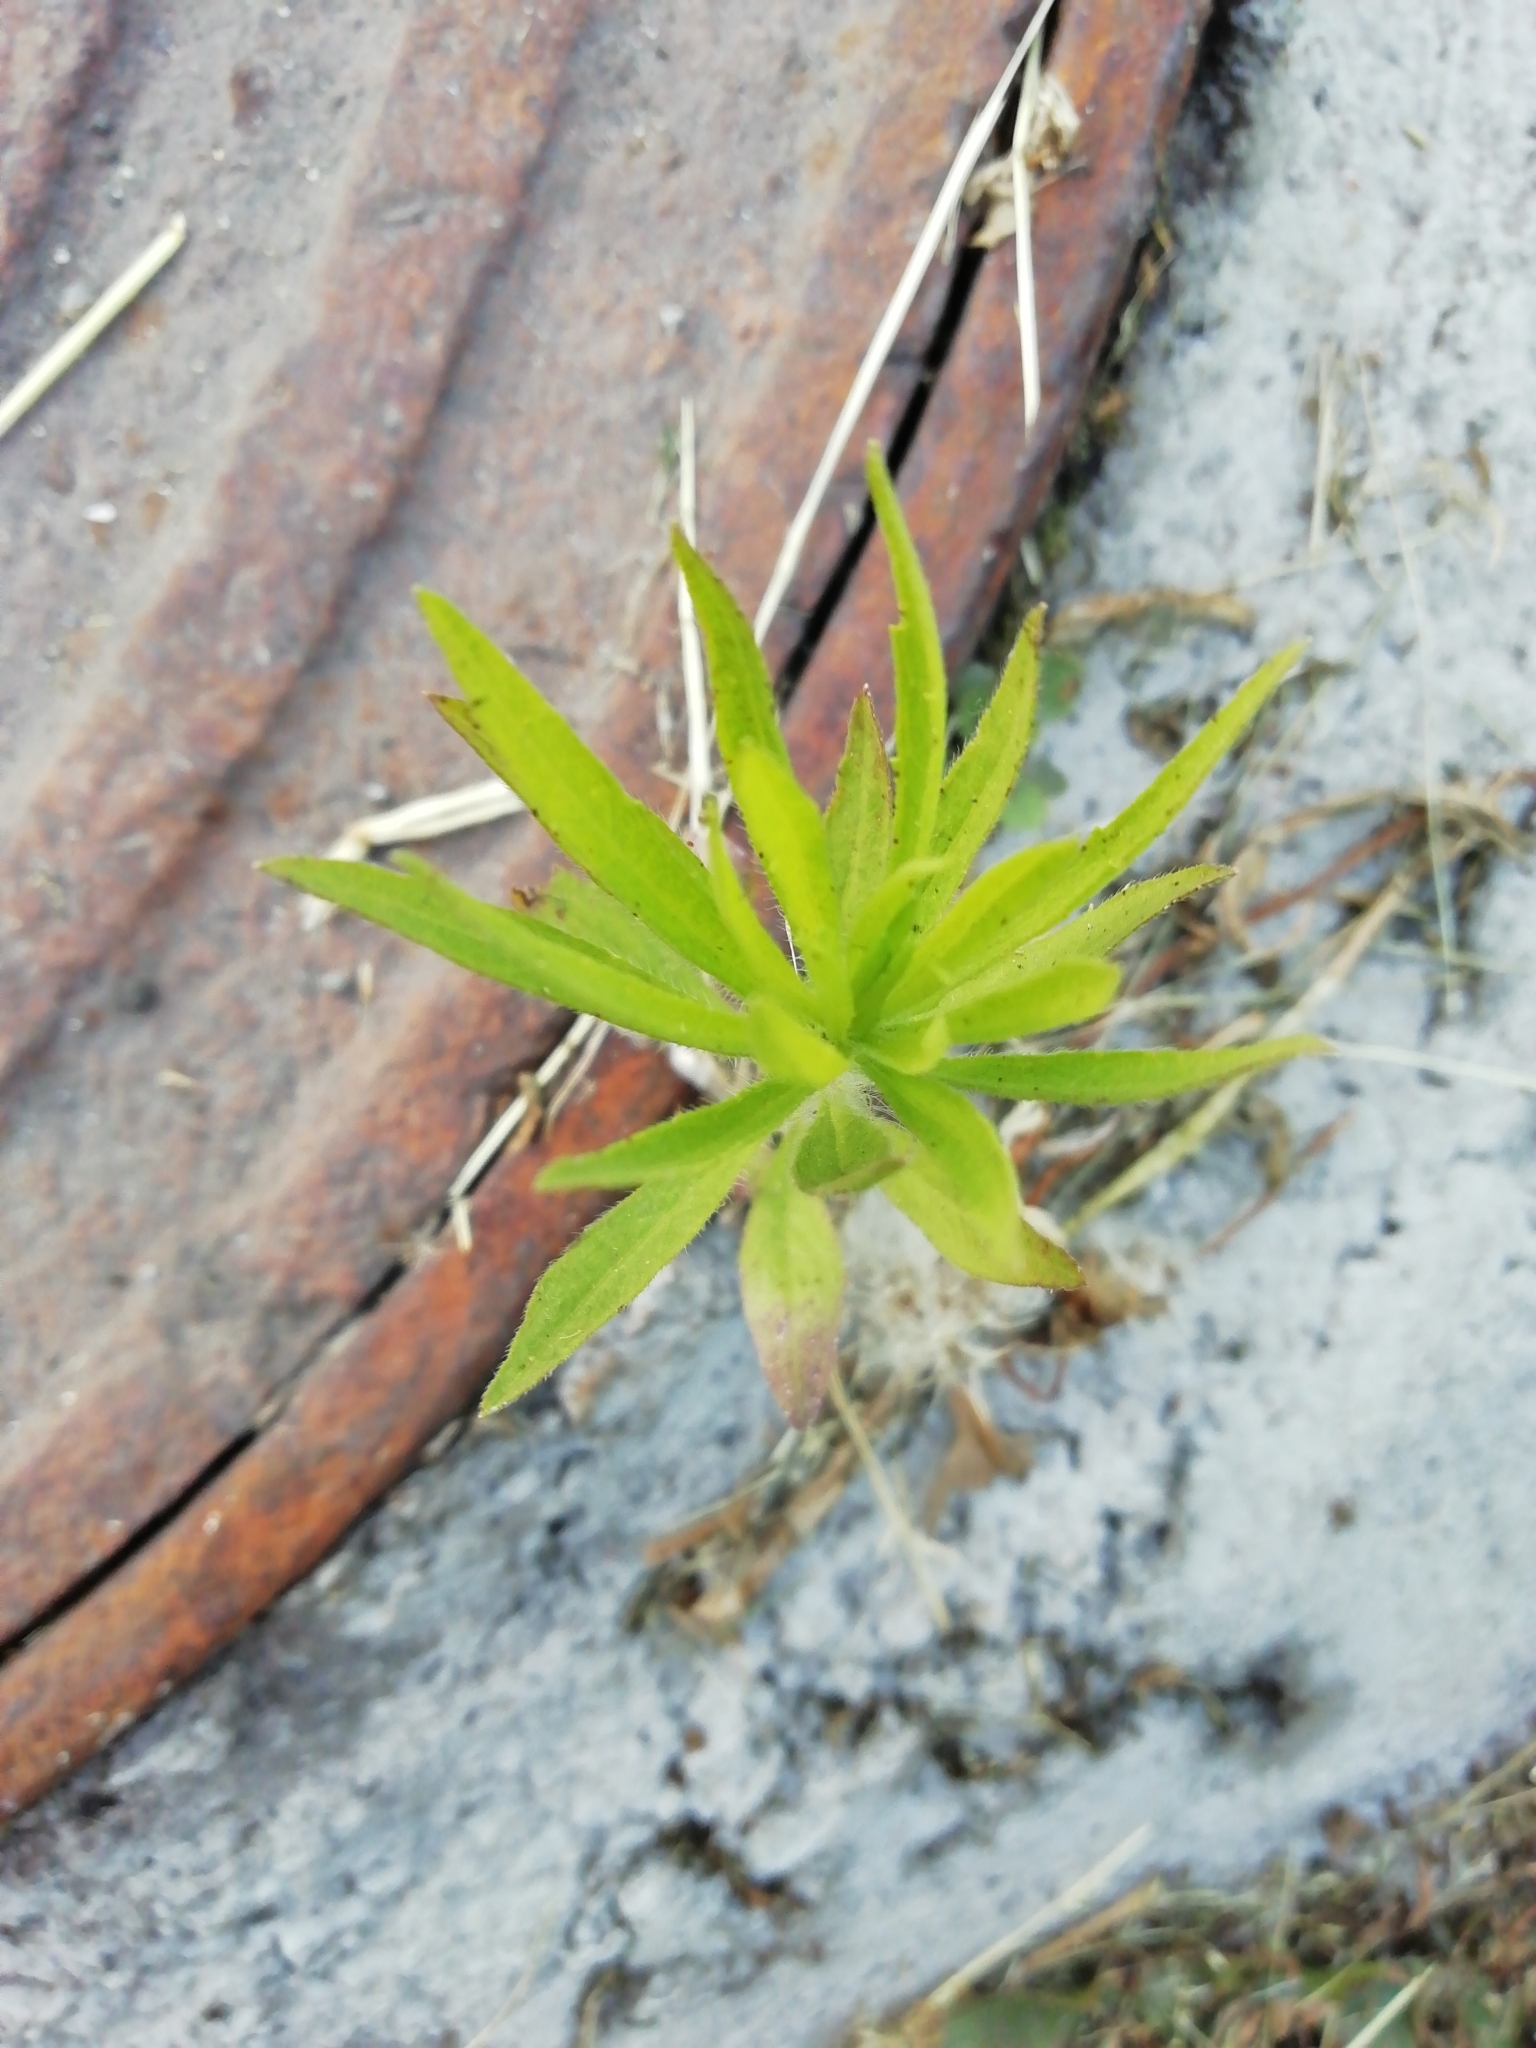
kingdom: Plantae
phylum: Tracheophyta
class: Magnoliopsida
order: Asterales
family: Asteraceae
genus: Erigeron
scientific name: Erigeron canadensis
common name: Canadian fleabane
